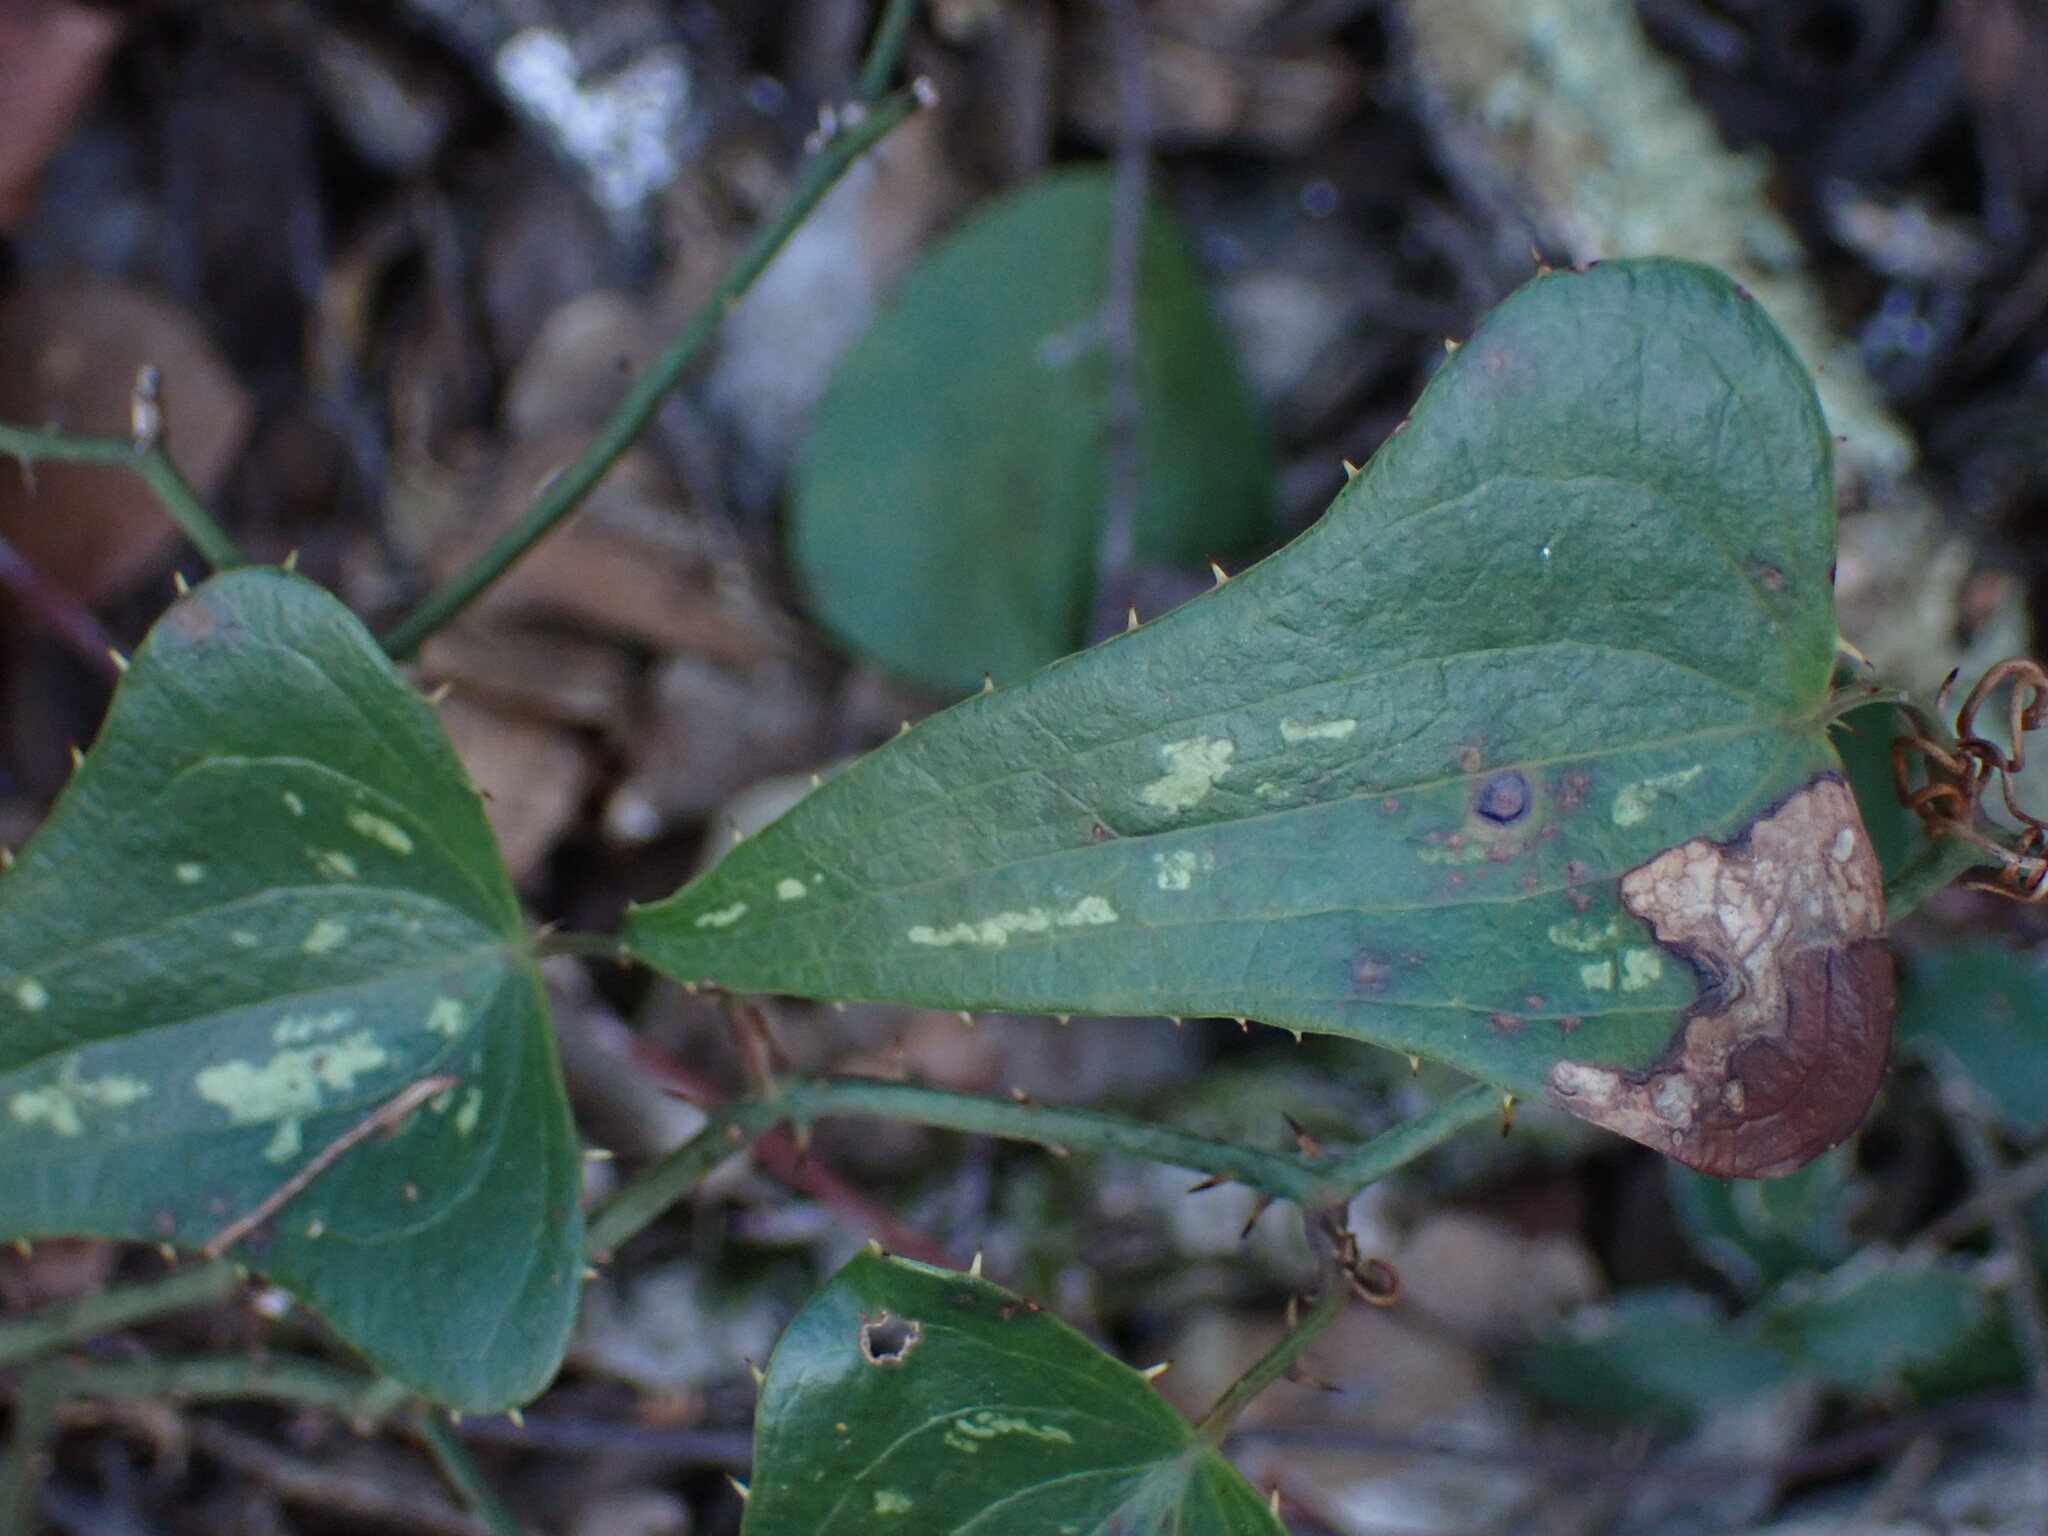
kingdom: Plantae
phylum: Tracheophyta
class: Liliopsida
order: Liliales
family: Smilacaceae
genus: Smilax
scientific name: Smilax aspera
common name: Common smilax
